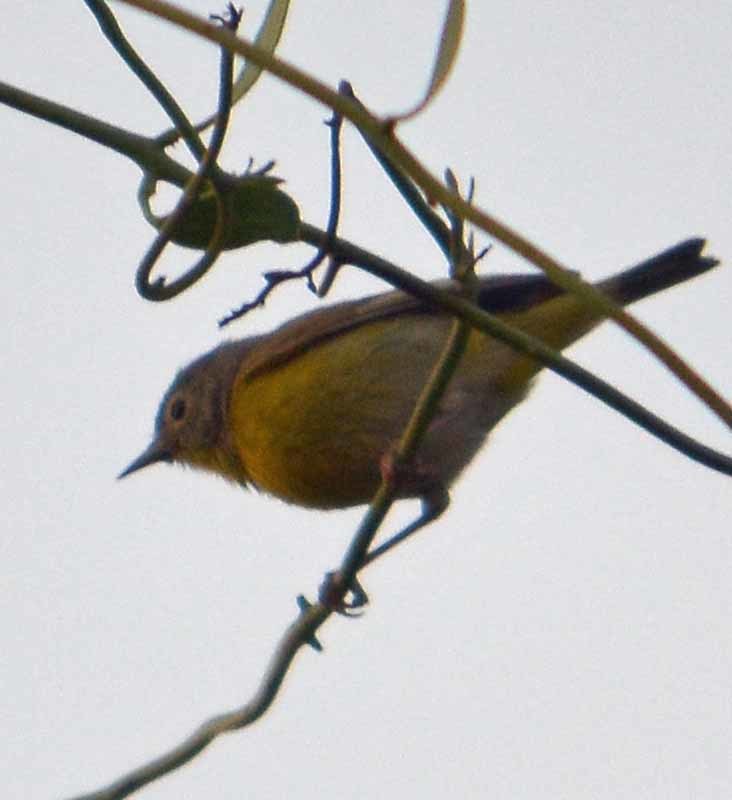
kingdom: Animalia
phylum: Chordata
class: Aves
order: Passeriformes
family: Parulidae
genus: Leiothlypis
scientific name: Leiothlypis ruficapilla
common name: Nashville warbler
